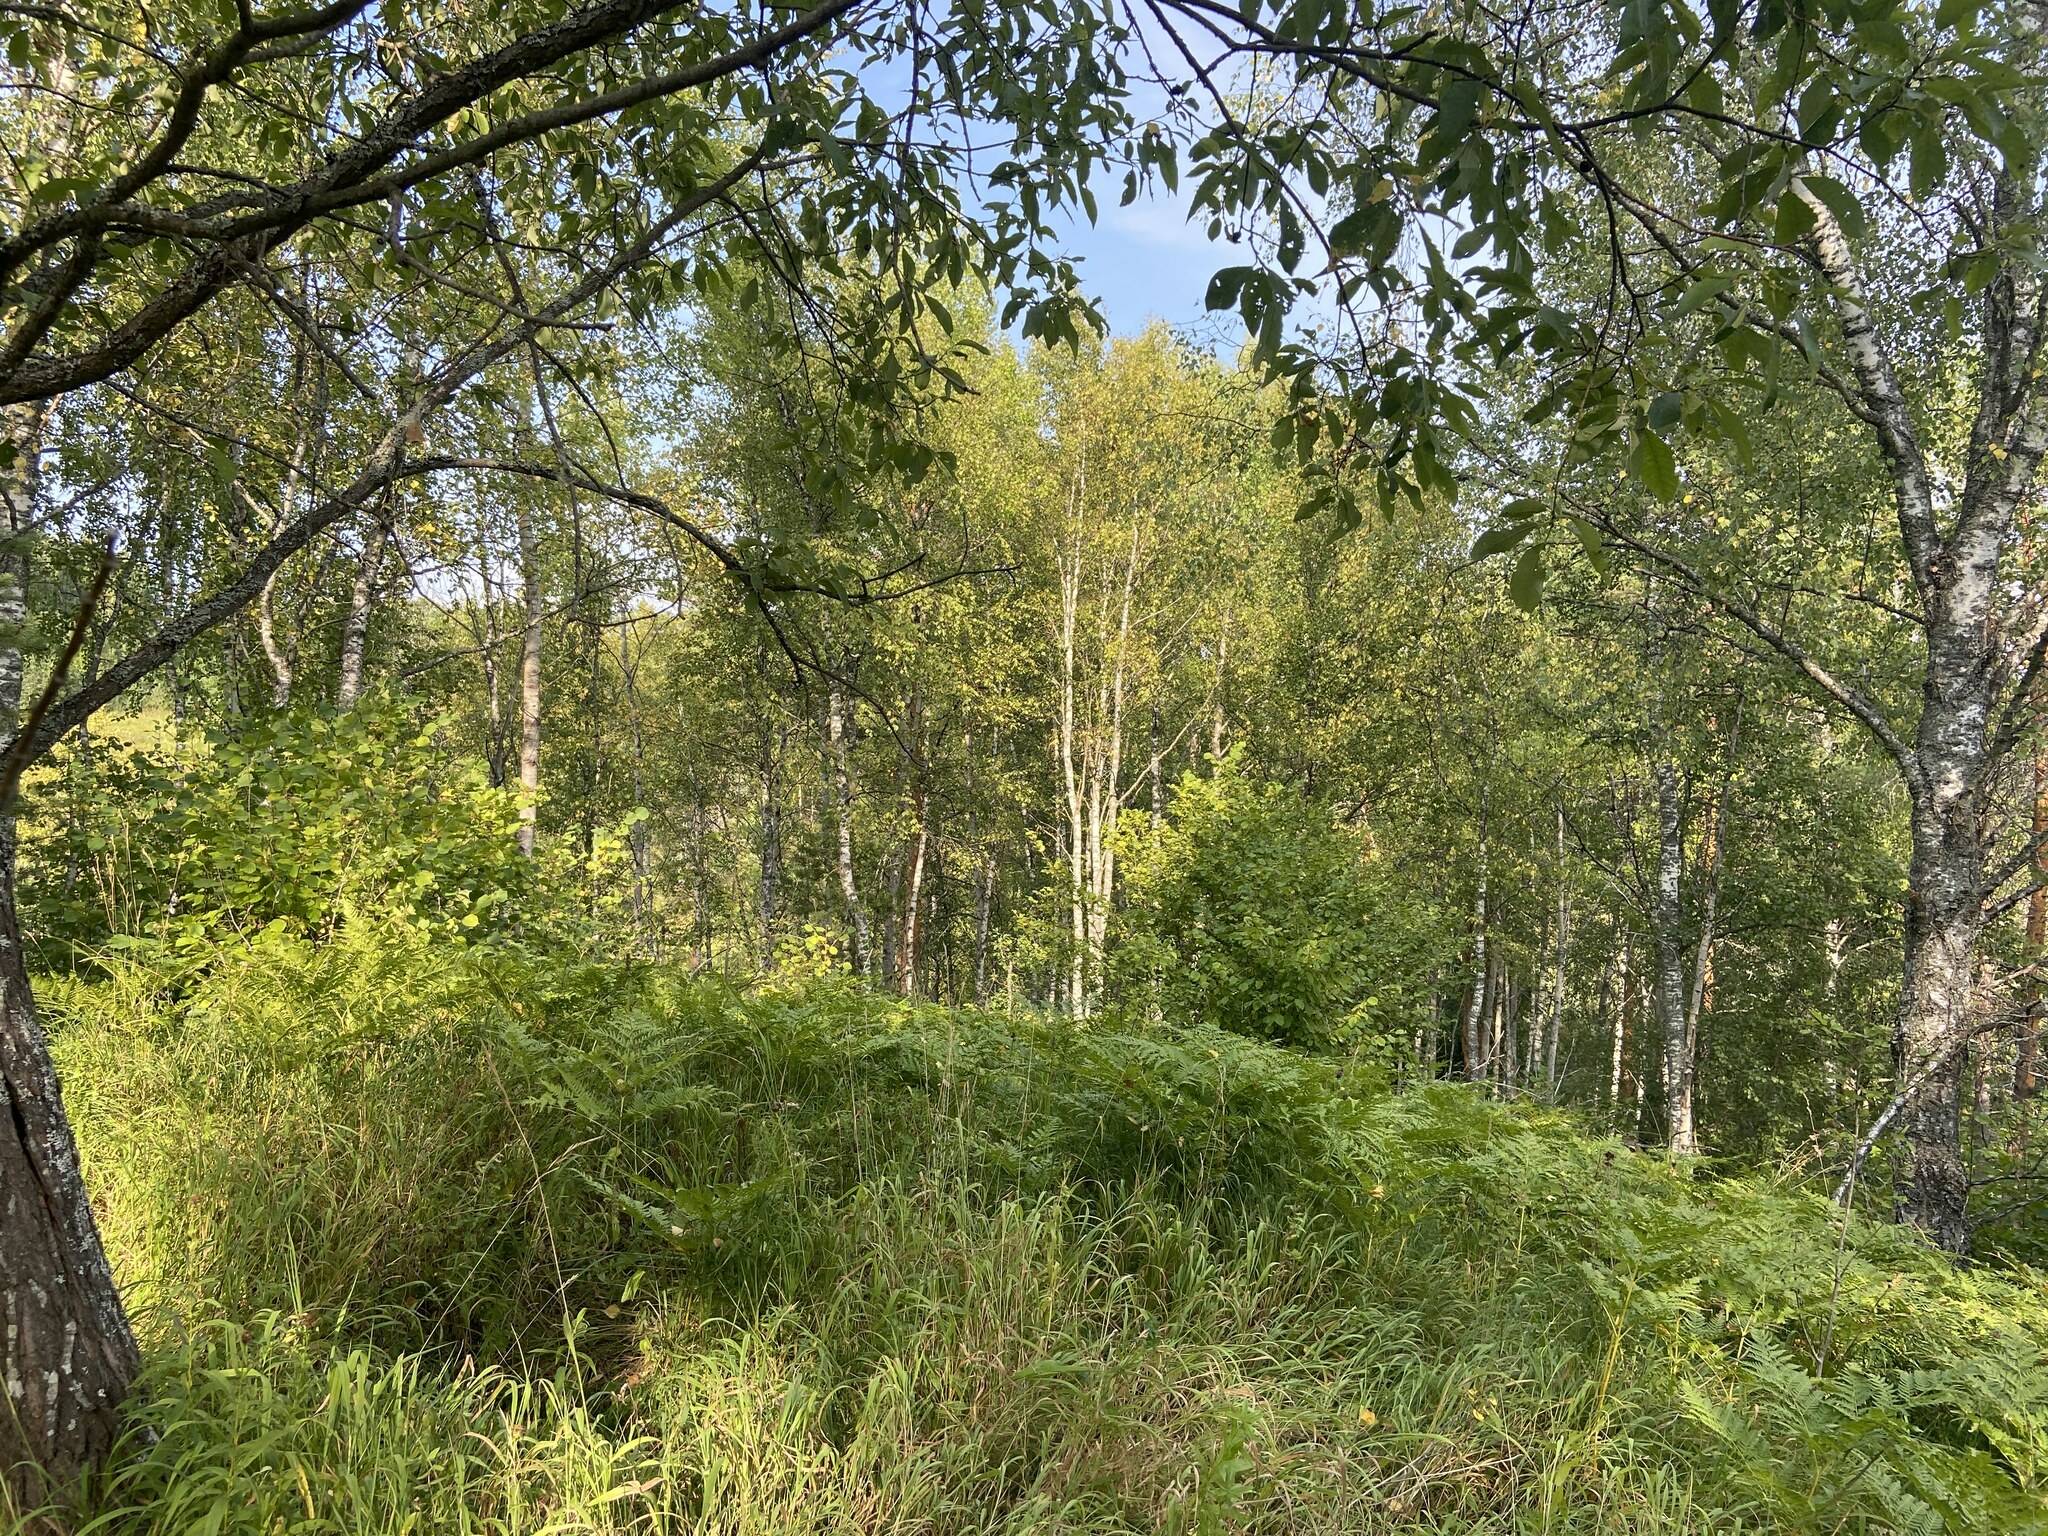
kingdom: Plantae
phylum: Tracheophyta
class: Polypodiopsida
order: Polypodiales
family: Dennstaedtiaceae
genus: Pteridium
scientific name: Pteridium aquilinum
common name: Bracken
